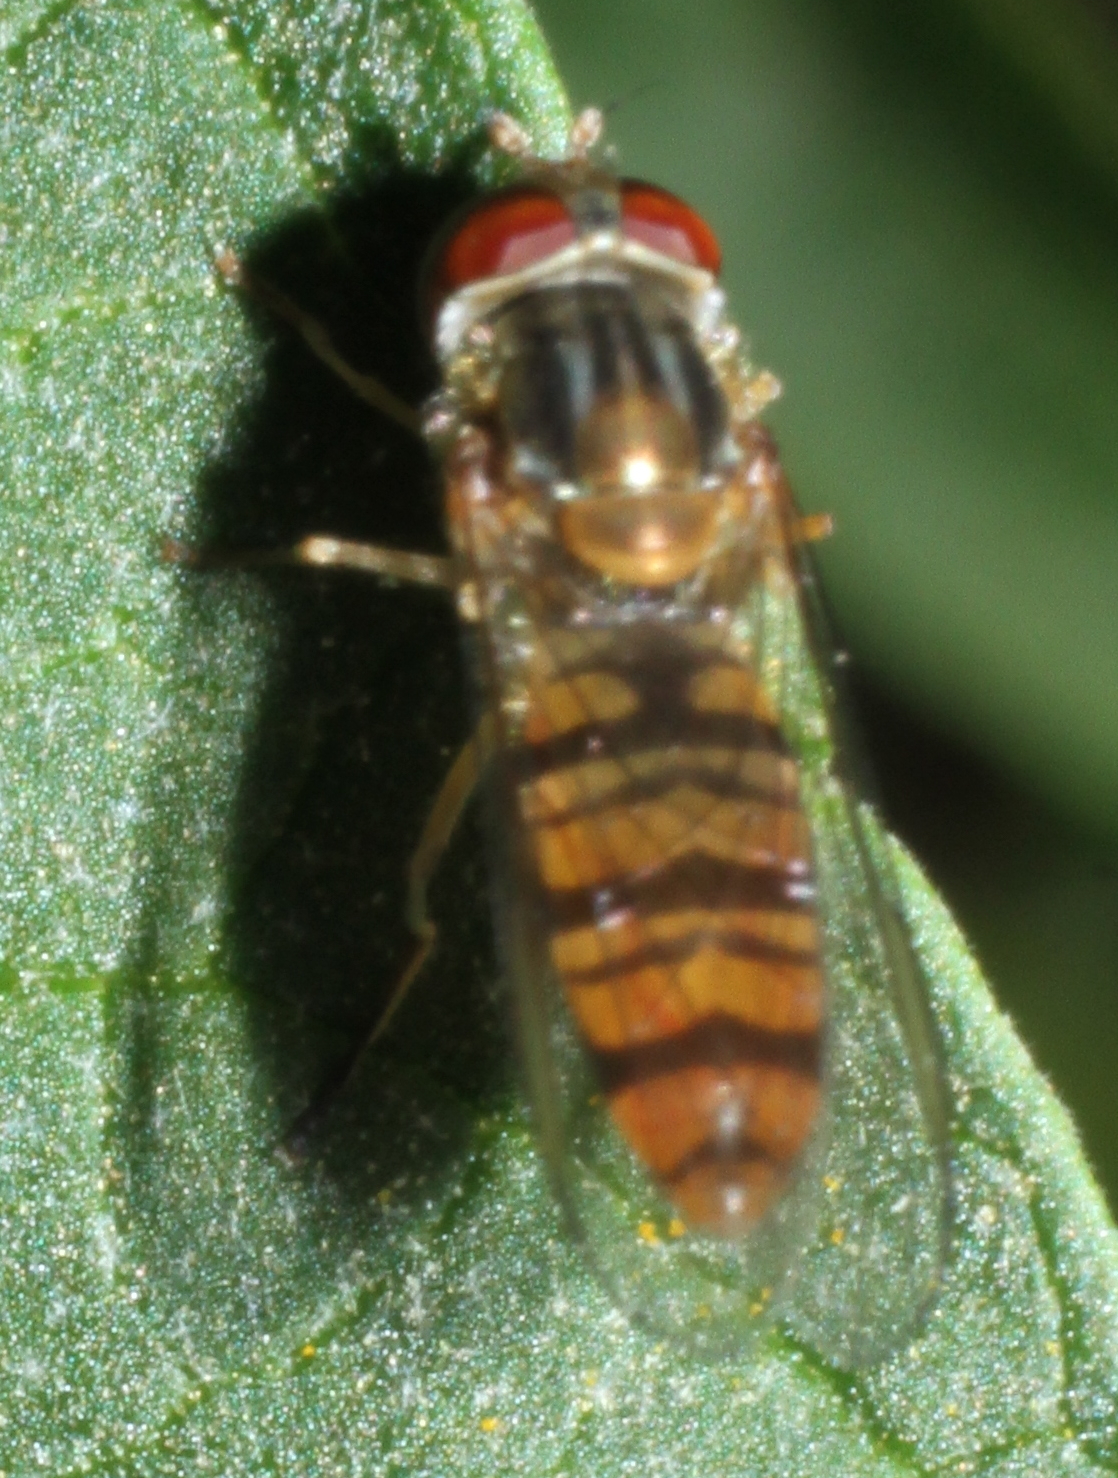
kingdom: Animalia
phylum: Arthropoda
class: Insecta
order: Diptera
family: Syrphidae
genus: Episyrphus
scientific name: Episyrphus balteatus
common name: Marmalade hoverfly
